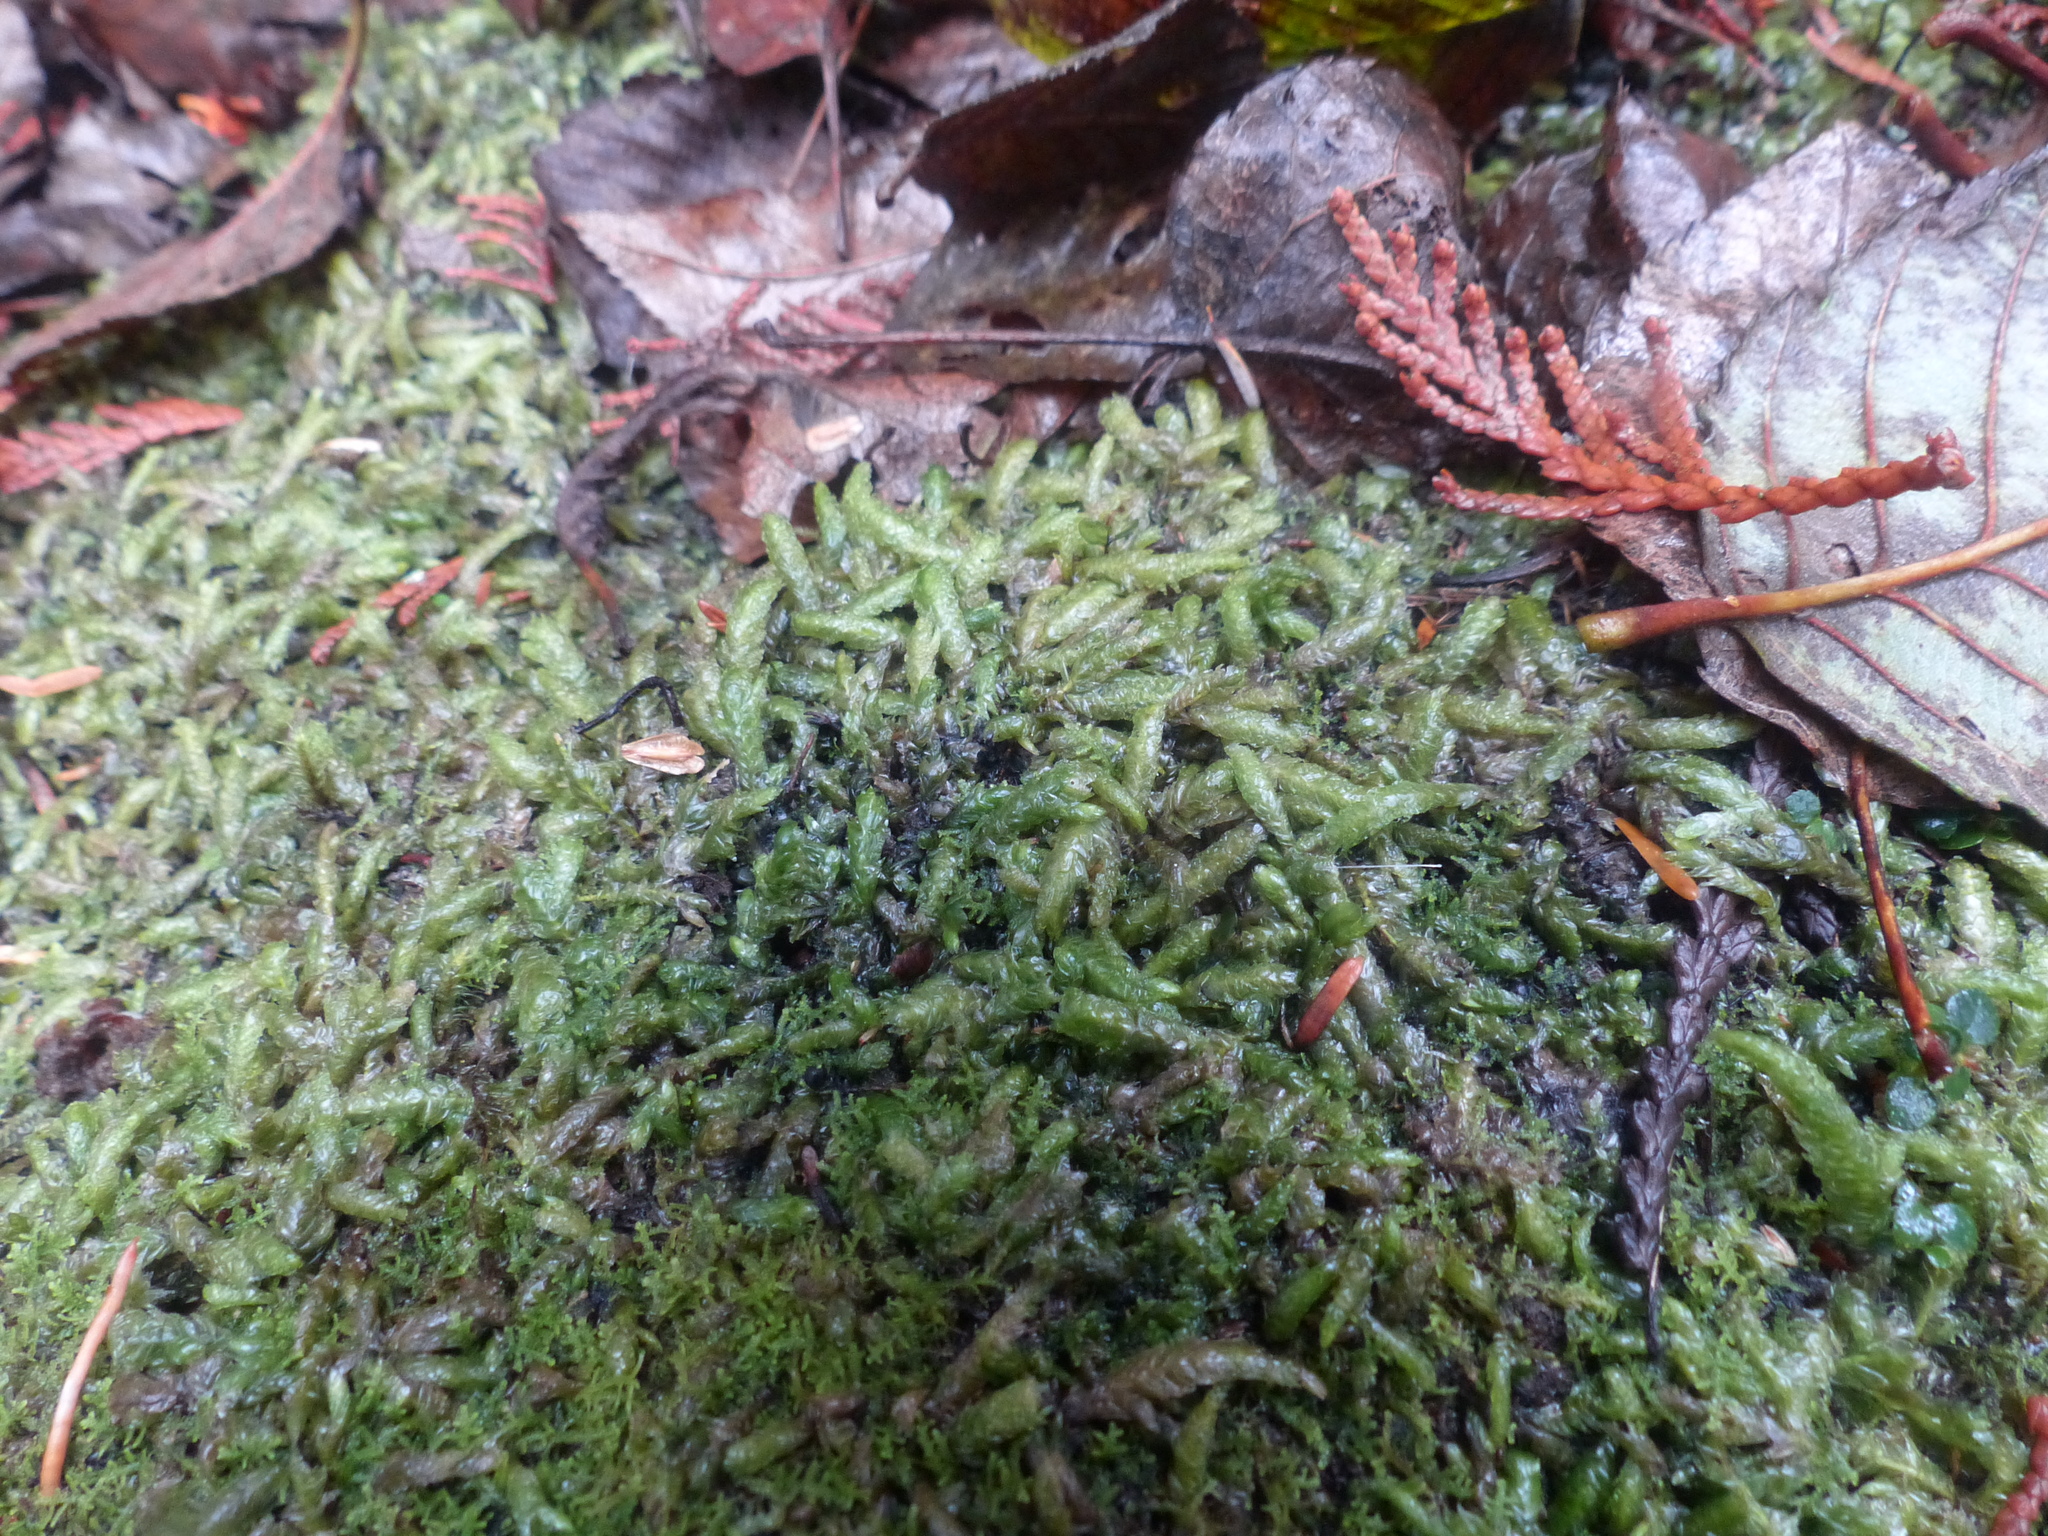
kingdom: Plantae
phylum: Bryophyta
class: Bryopsida
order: Hypnales
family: Plagiotheciaceae
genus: Plagiothecium
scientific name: Plagiothecium undulatum
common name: Waved silk-moss
